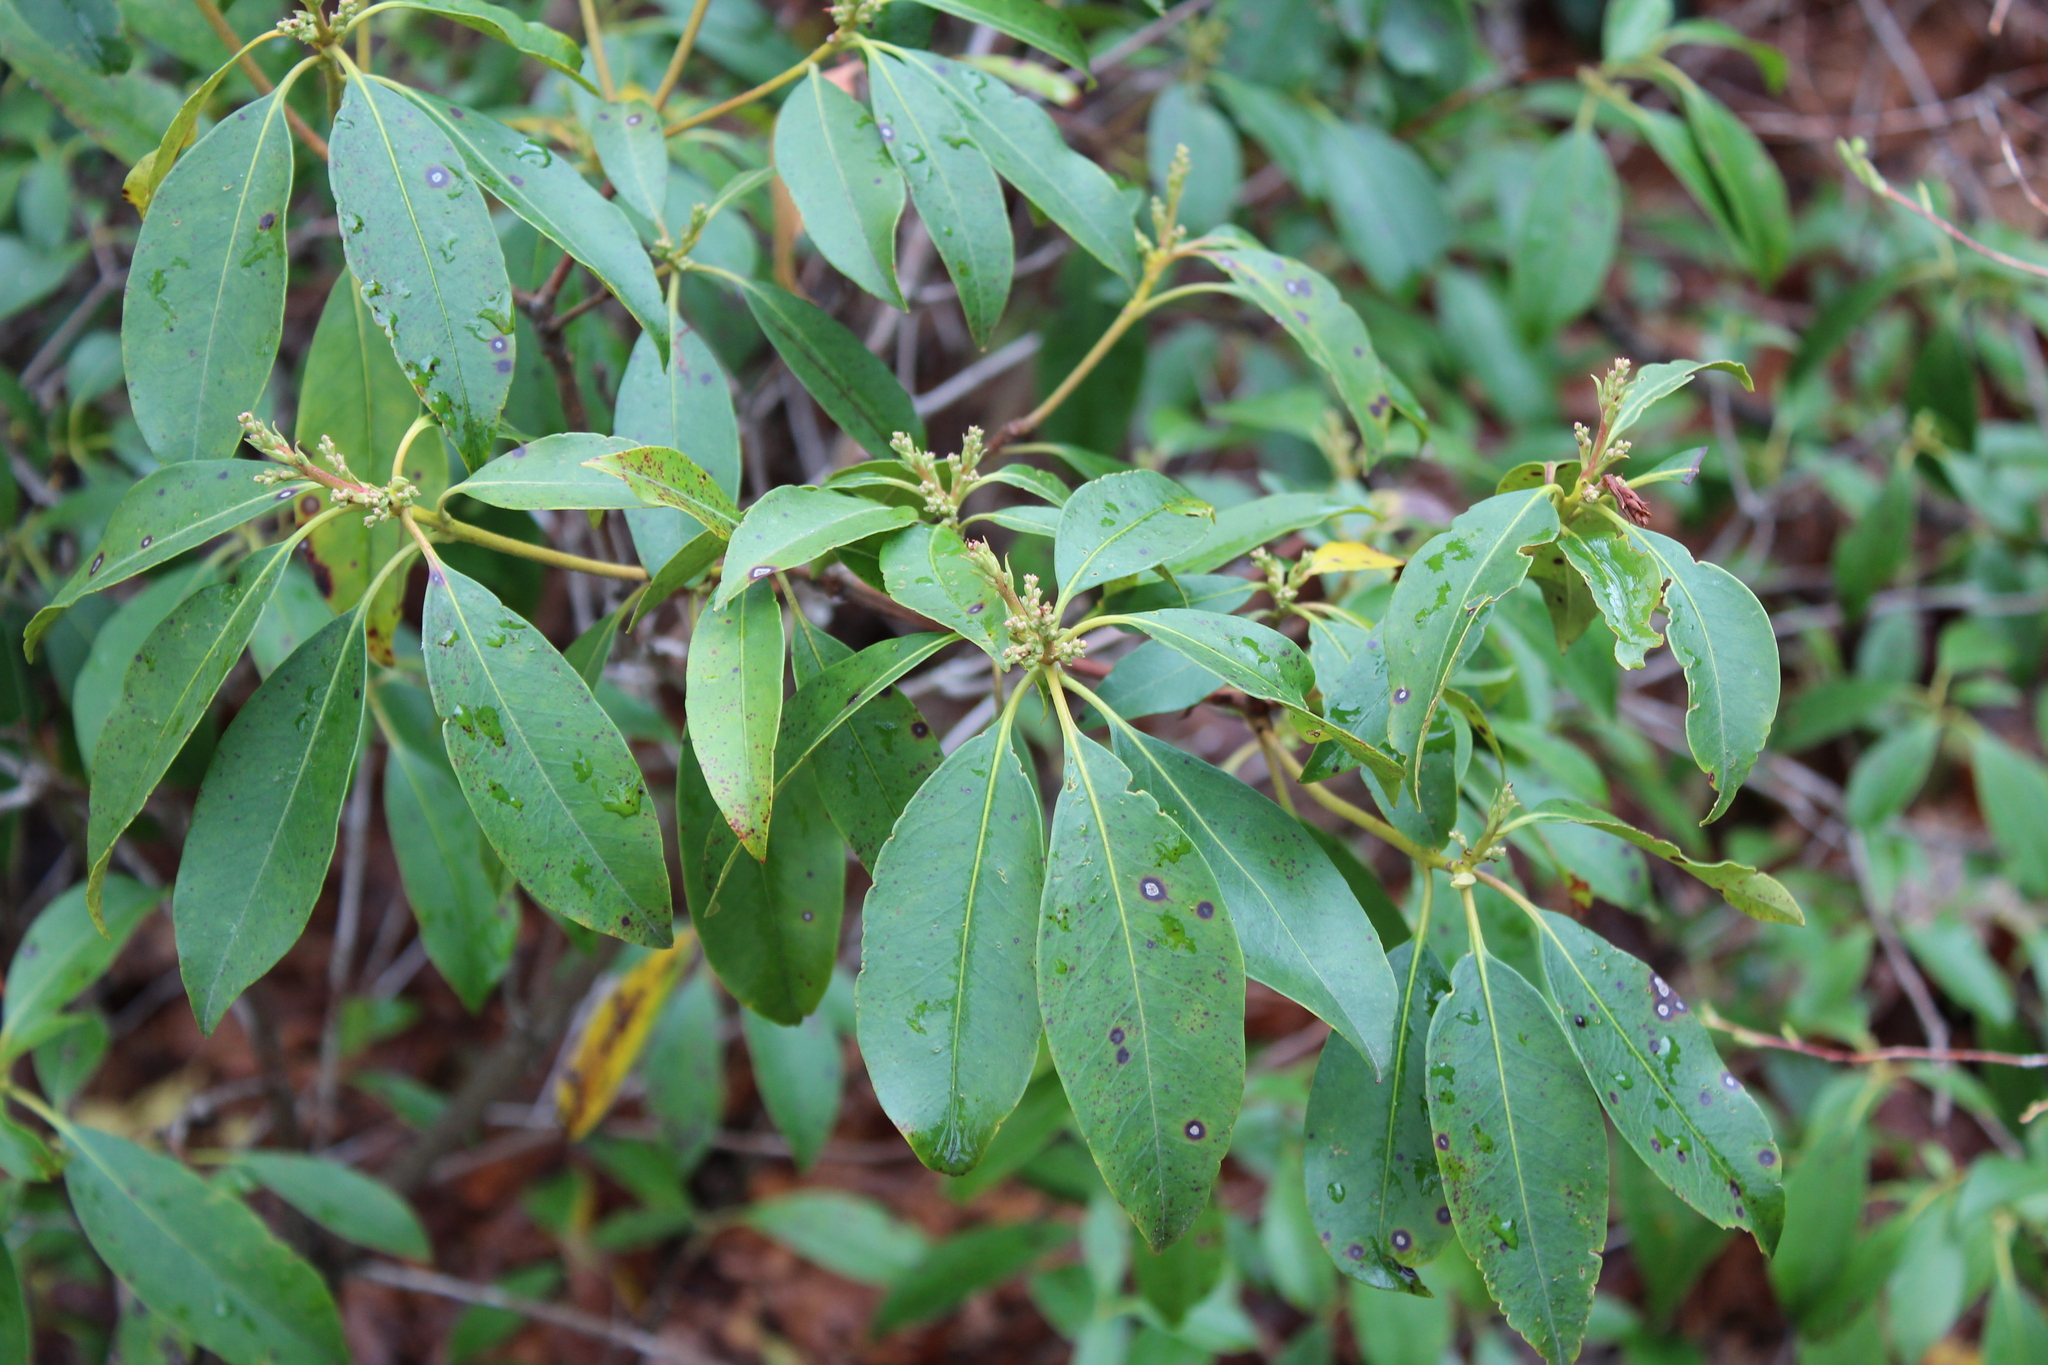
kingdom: Plantae
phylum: Tracheophyta
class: Magnoliopsida
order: Ericales
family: Ericaceae
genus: Kalmia
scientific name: Kalmia latifolia
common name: Mountain-laurel
